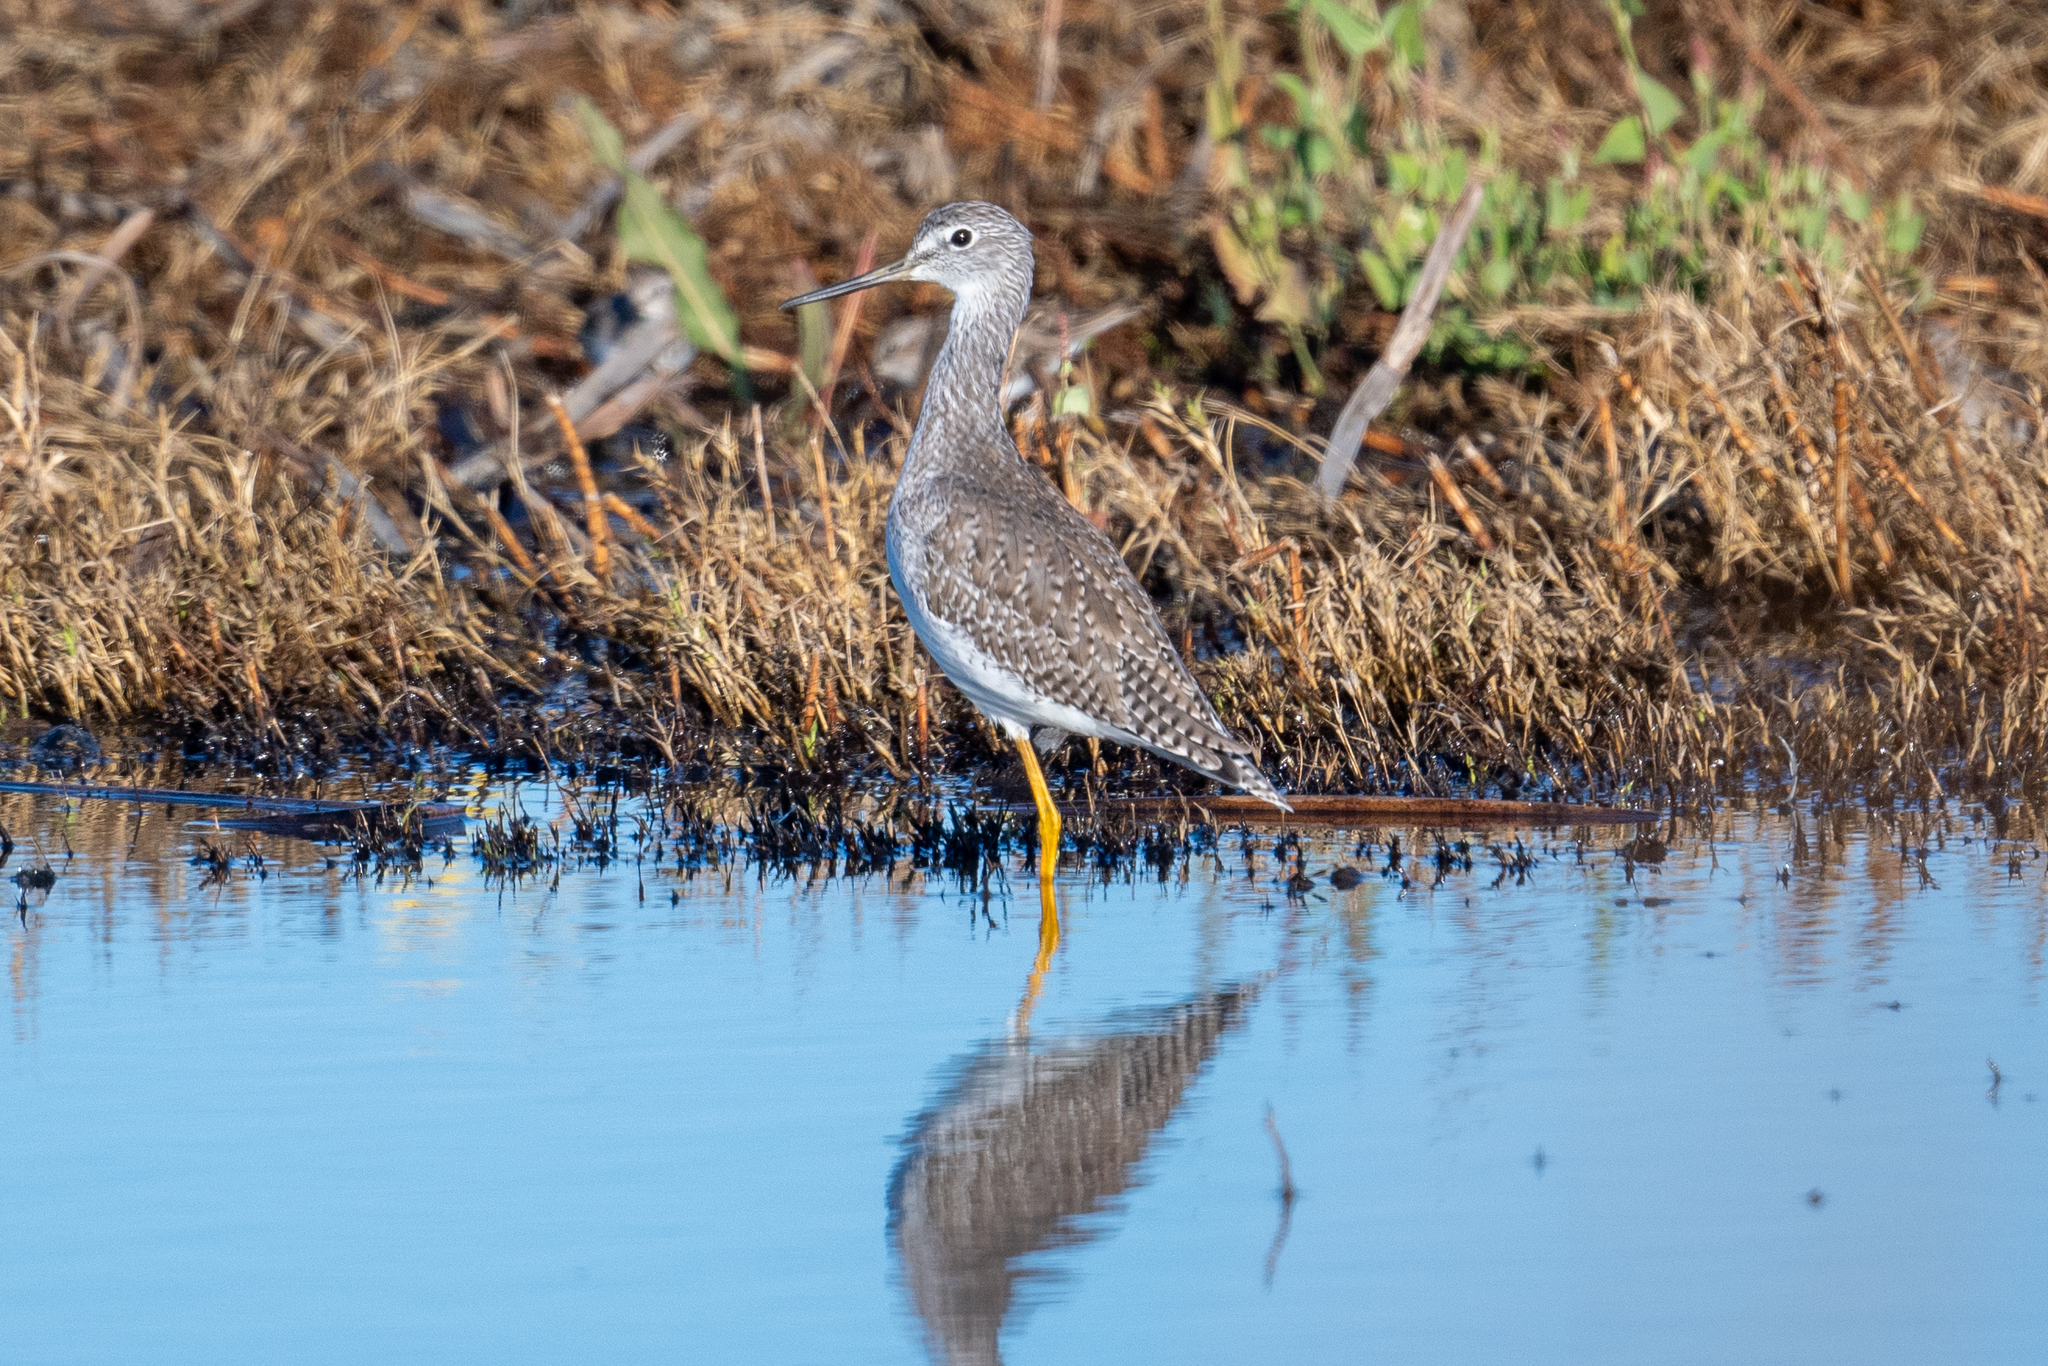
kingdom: Animalia
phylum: Chordata
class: Aves
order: Charadriiformes
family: Scolopacidae
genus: Tringa
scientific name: Tringa melanoleuca
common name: Greater yellowlegs
